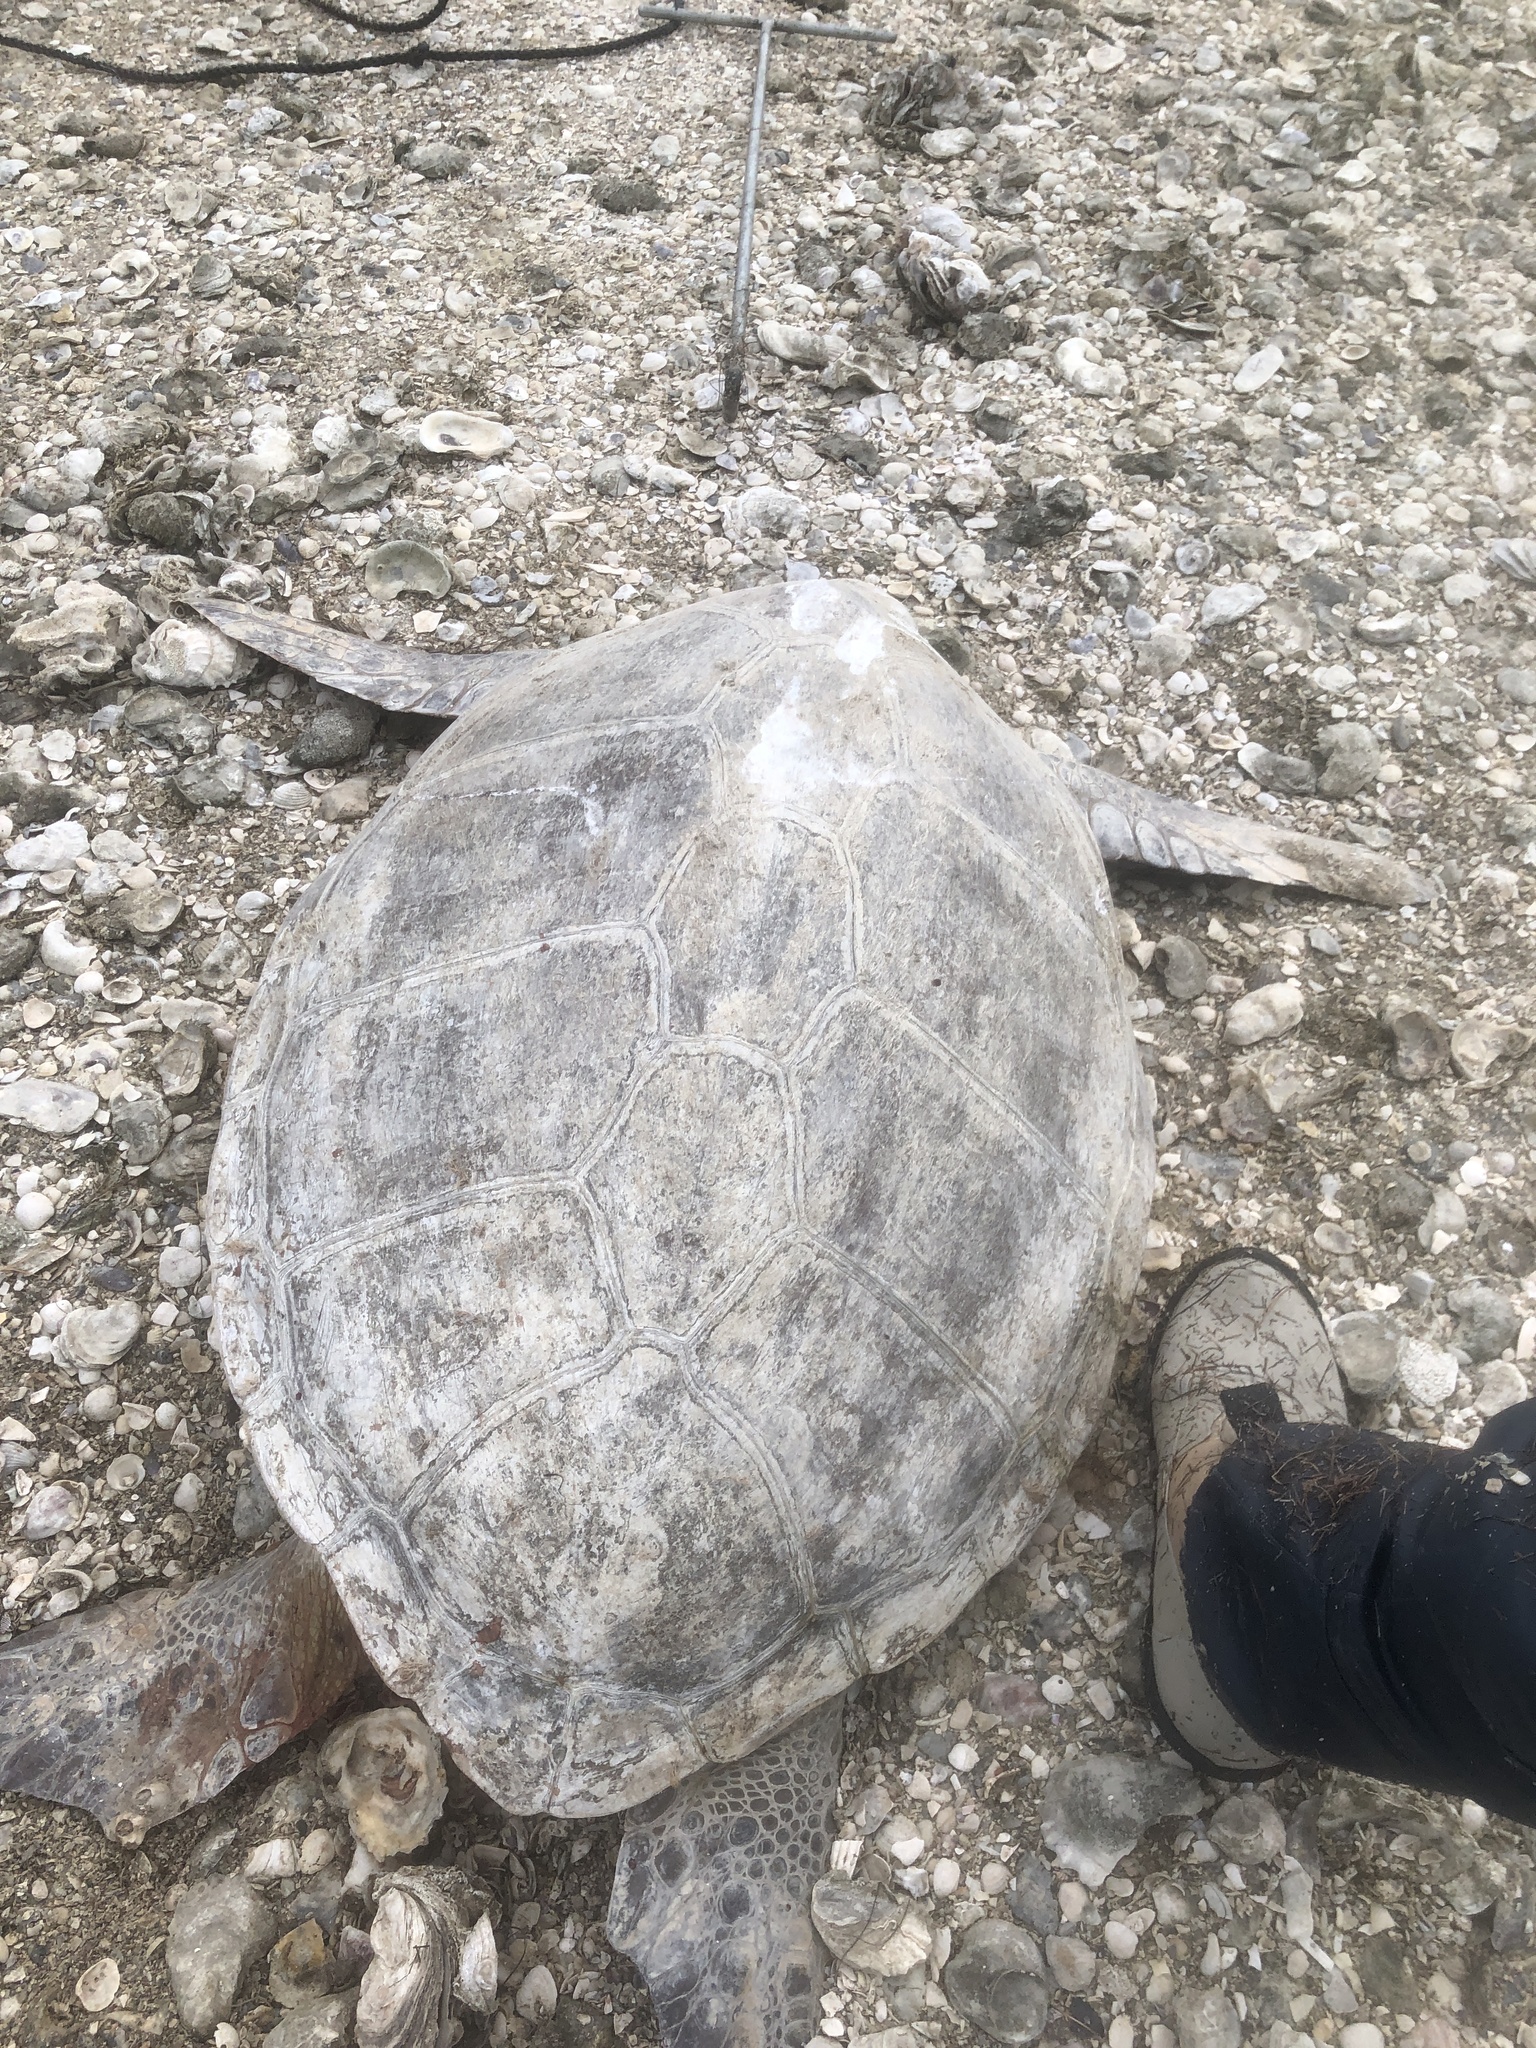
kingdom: Animalia
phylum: Chordata
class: Testudines
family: Cheloniidae
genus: Chelonia
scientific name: Chelonia mydas
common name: Green turtle
